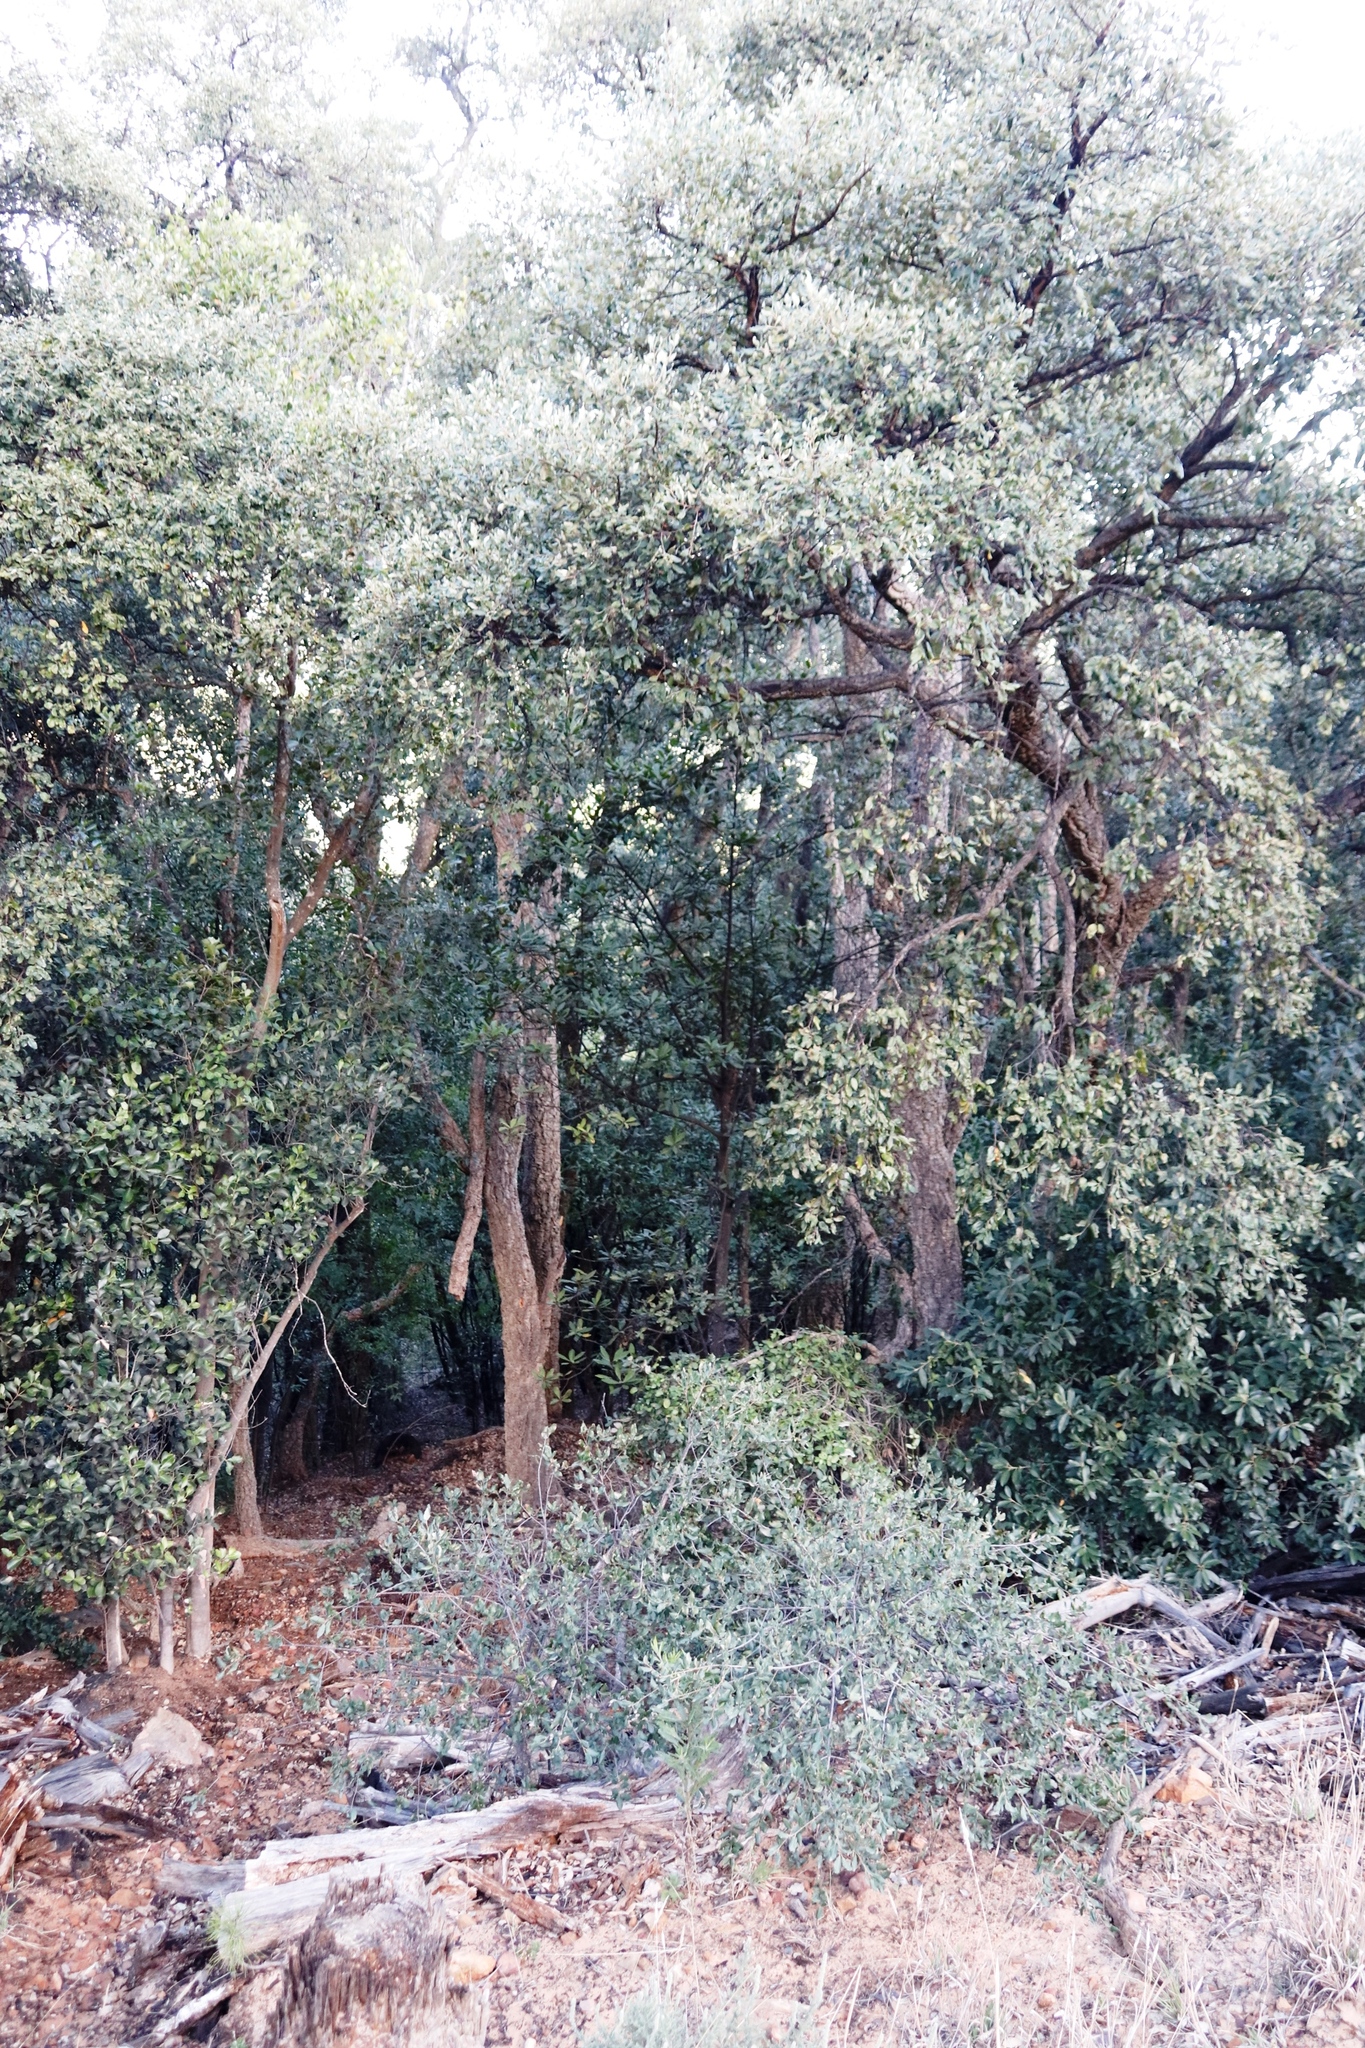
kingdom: Plantae
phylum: Tracheophyta
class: Magnoliopsida
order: Fagales
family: Fagaceae
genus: Quercus
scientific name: Quercus suber
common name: Cork oak
